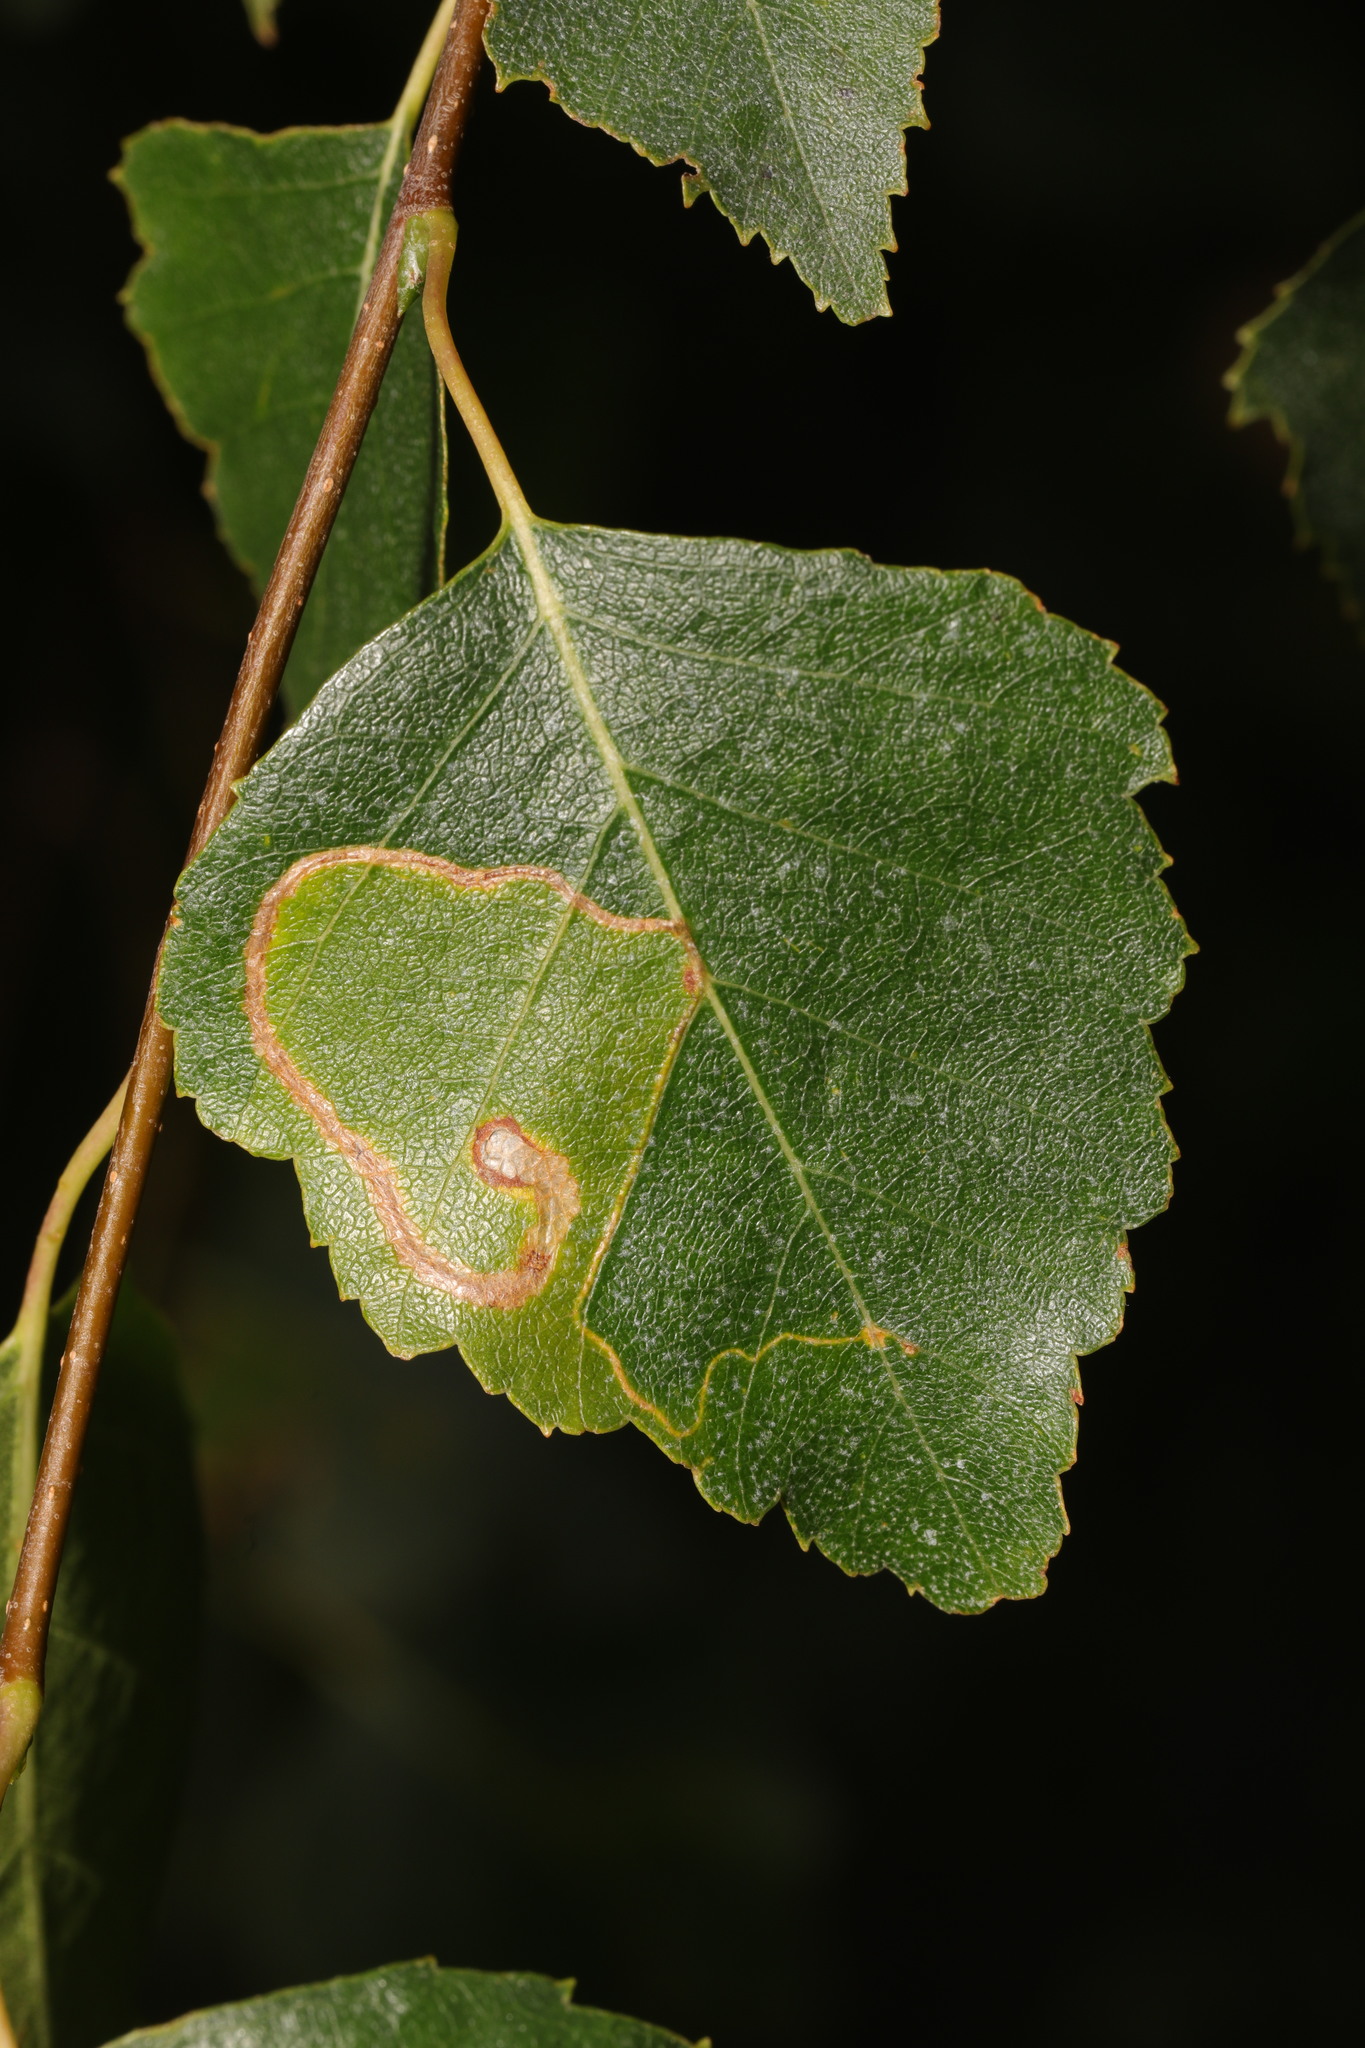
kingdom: Animalia
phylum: Arthropoda
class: Insecta
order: Lepidoptera
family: Lyonetiidae
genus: Lyonetia
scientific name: Lyonetia clerkella
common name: Apple leaf miner
